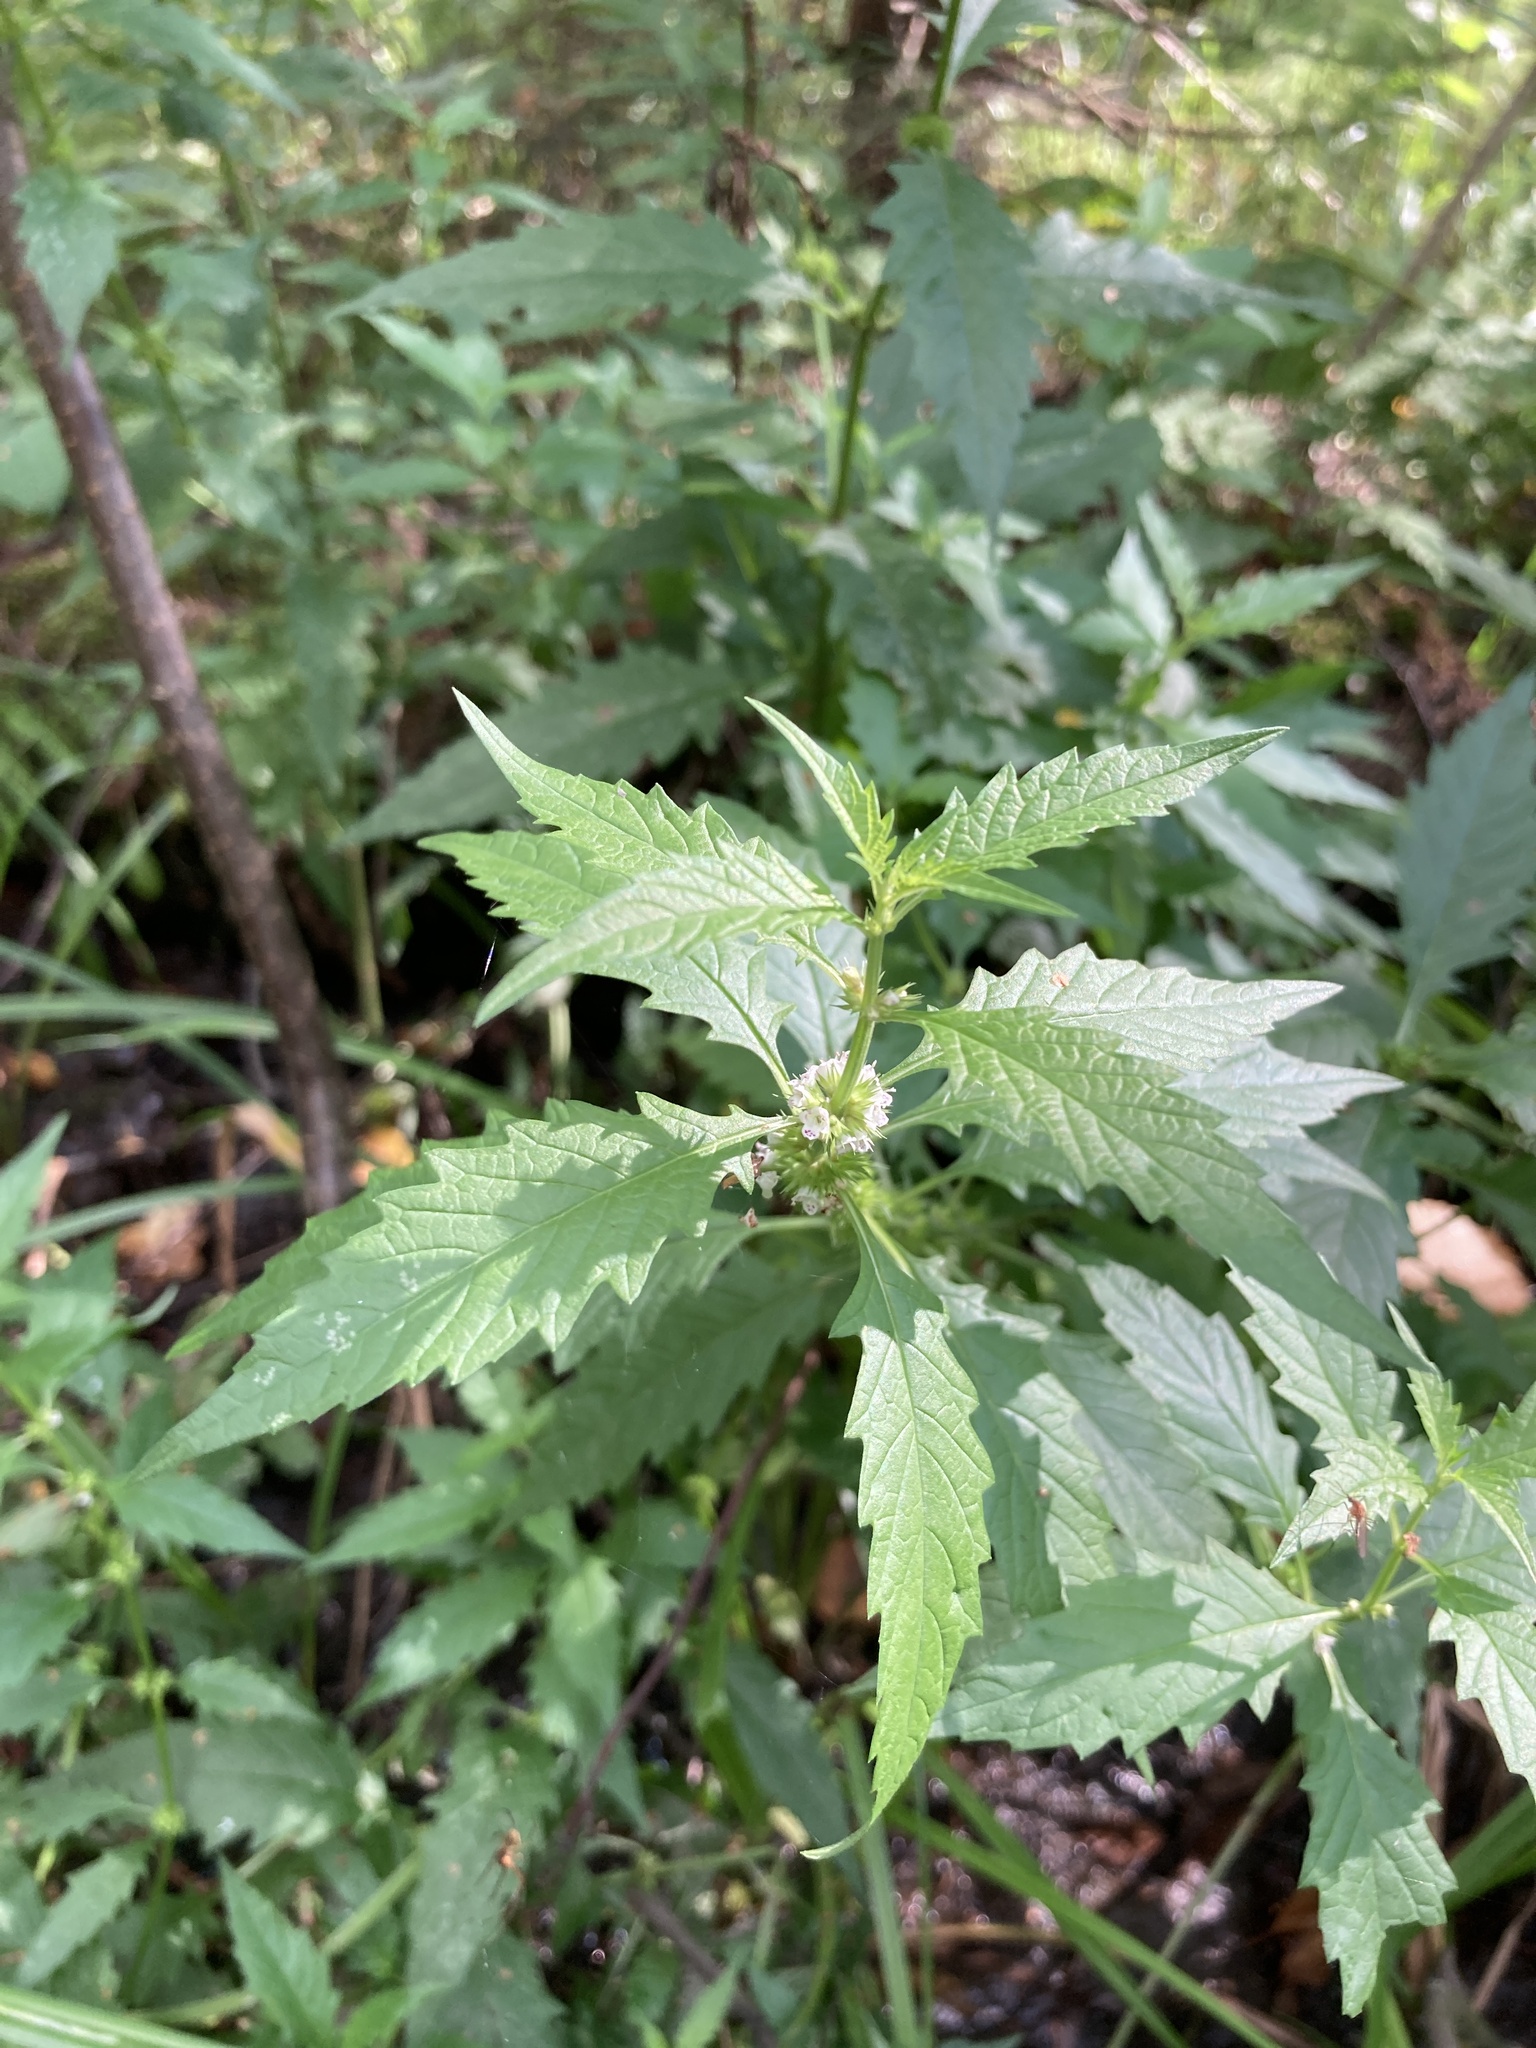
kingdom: Plantae
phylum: Tracheophyta
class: Magnoliopsida
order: Lamiales
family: Lamiaceae
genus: Lycopus
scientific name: Lycopus europaeus
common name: European bugleweed
